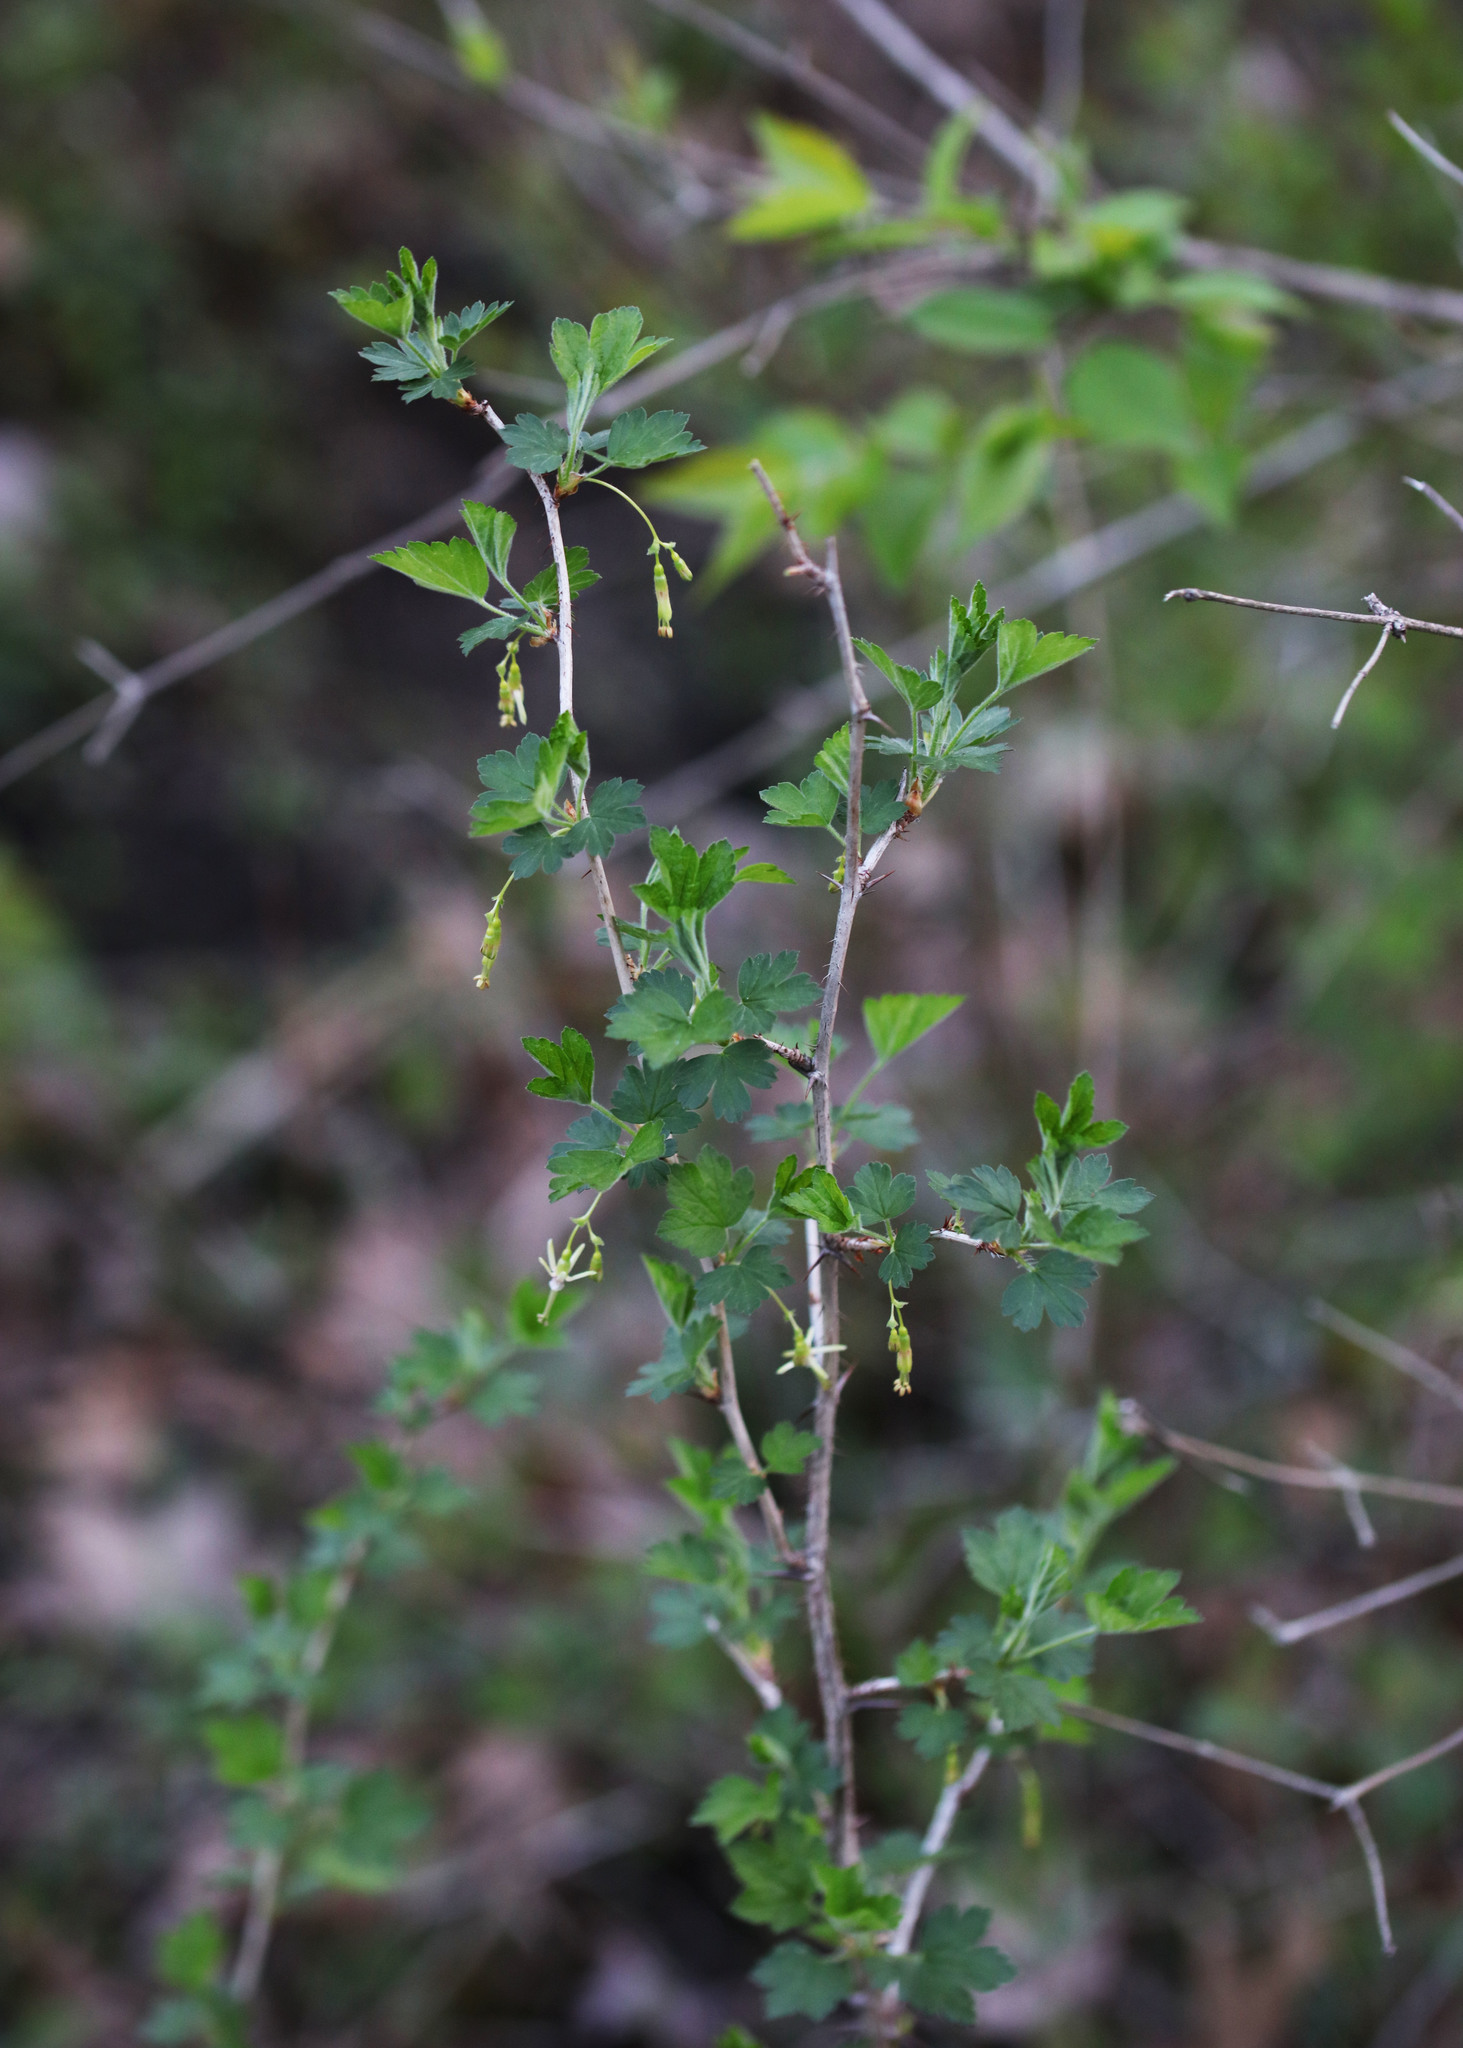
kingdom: Plantae
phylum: Tracheophyta
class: Magnoliopsida
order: Saxifragales
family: Grossulariaceae
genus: Ribes
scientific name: Ribes missouriense
